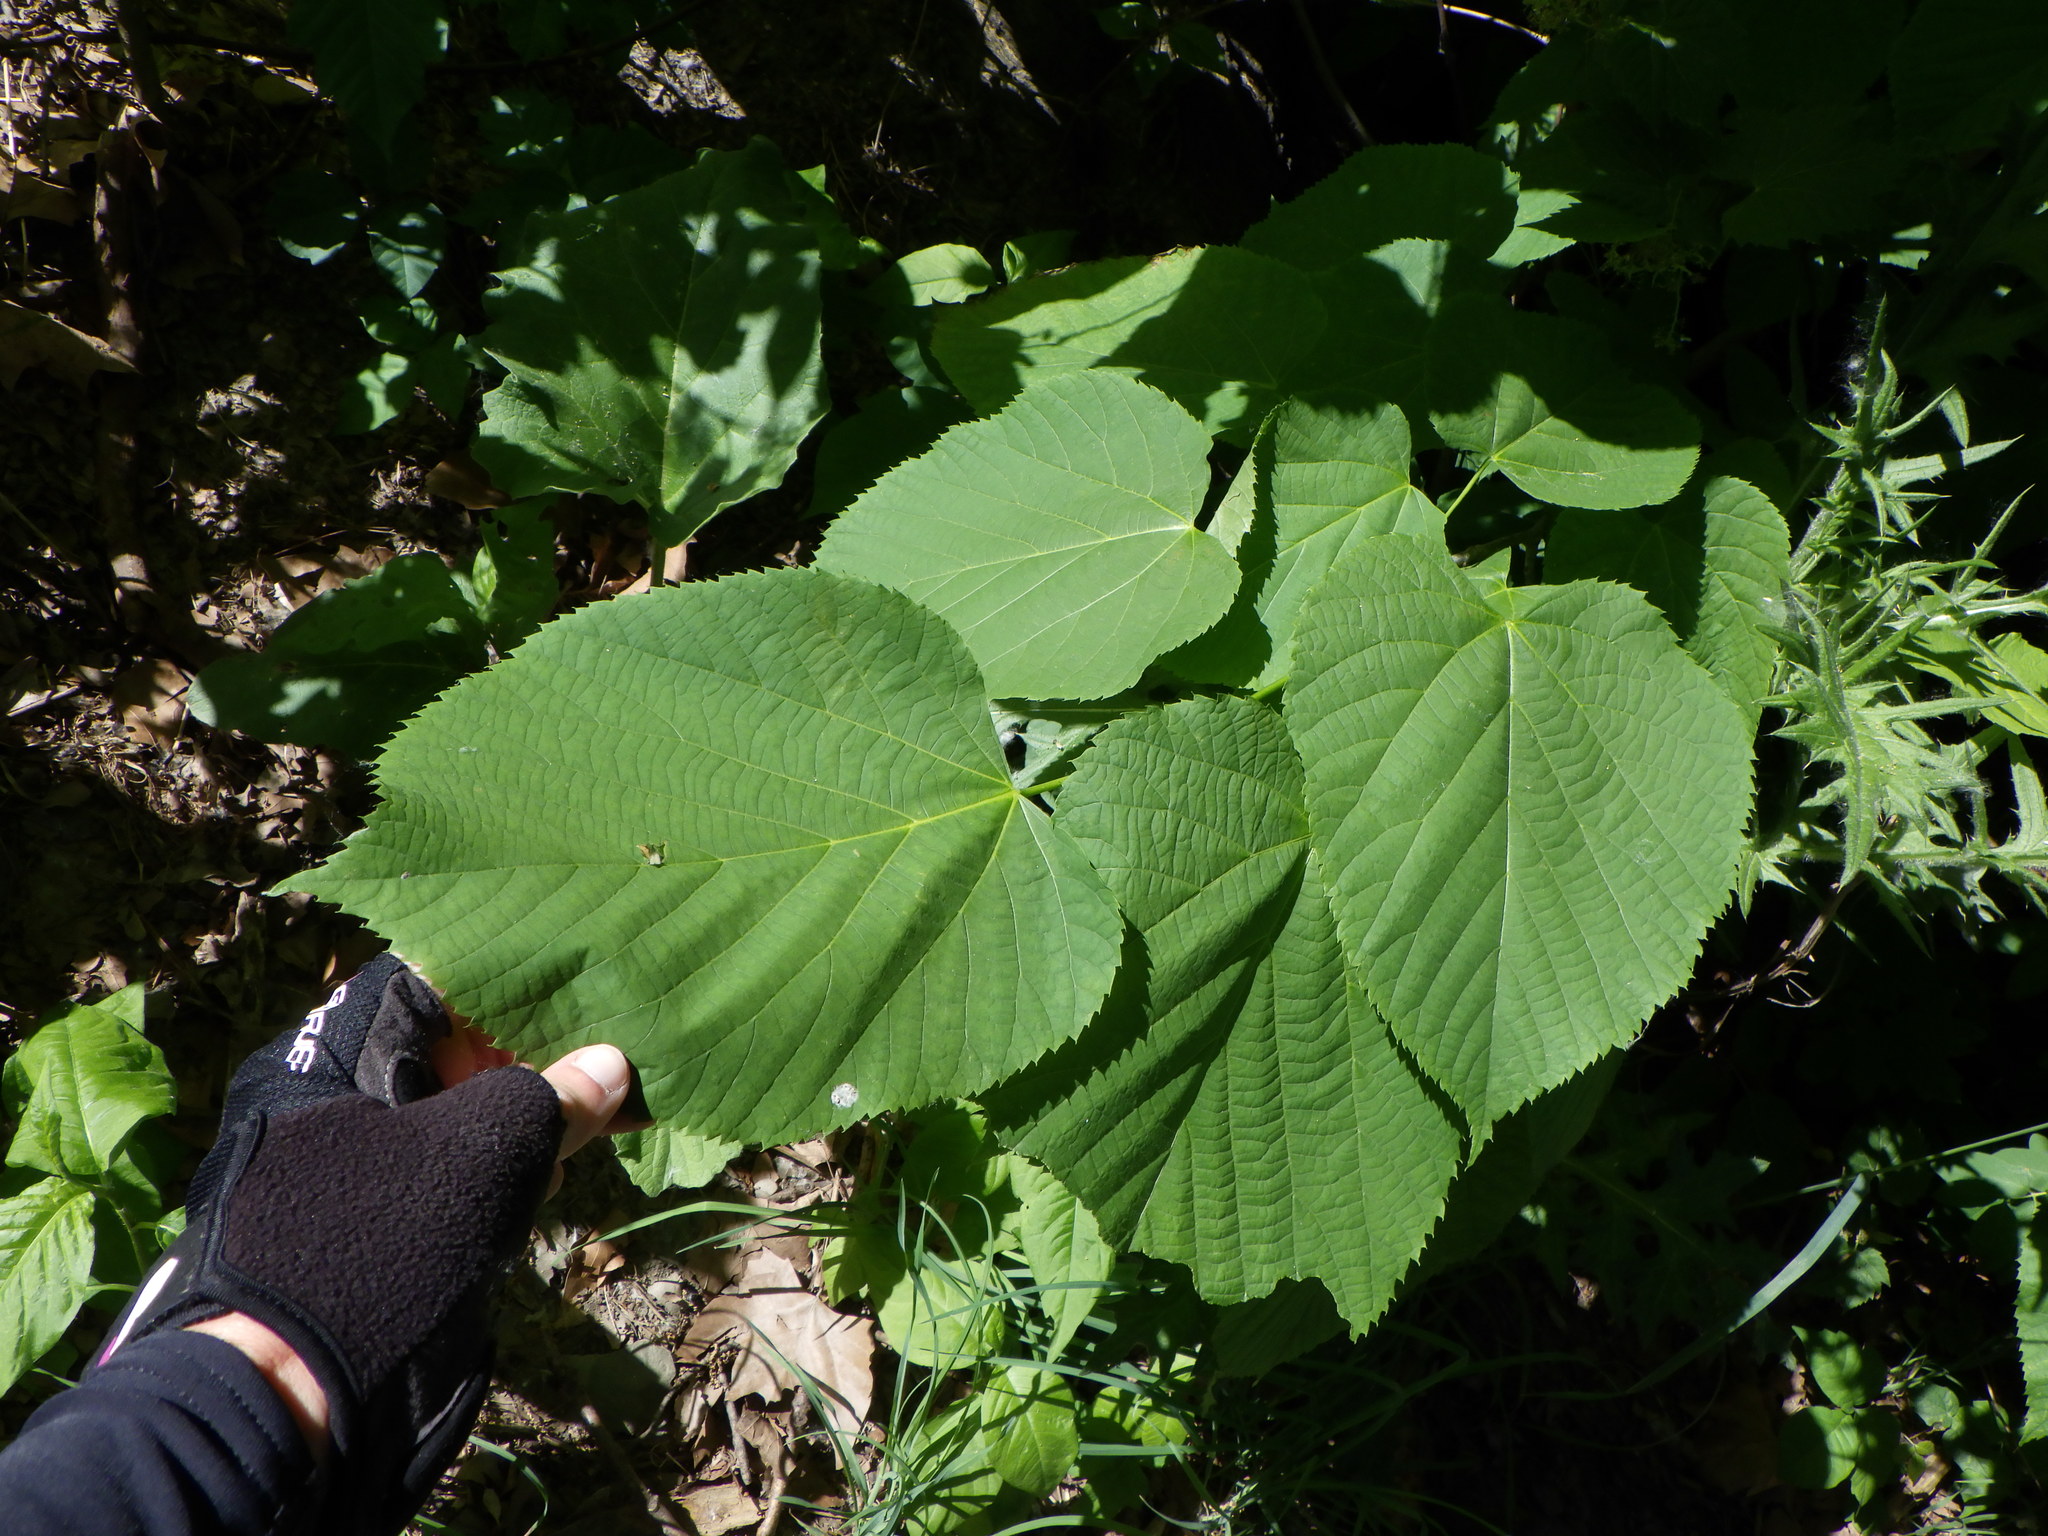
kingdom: Plantae
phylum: Tracheophyta
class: Magnoliopsida
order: Malvales
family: Malvaceae
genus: Tilia
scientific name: Tilia americana
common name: Basswood
